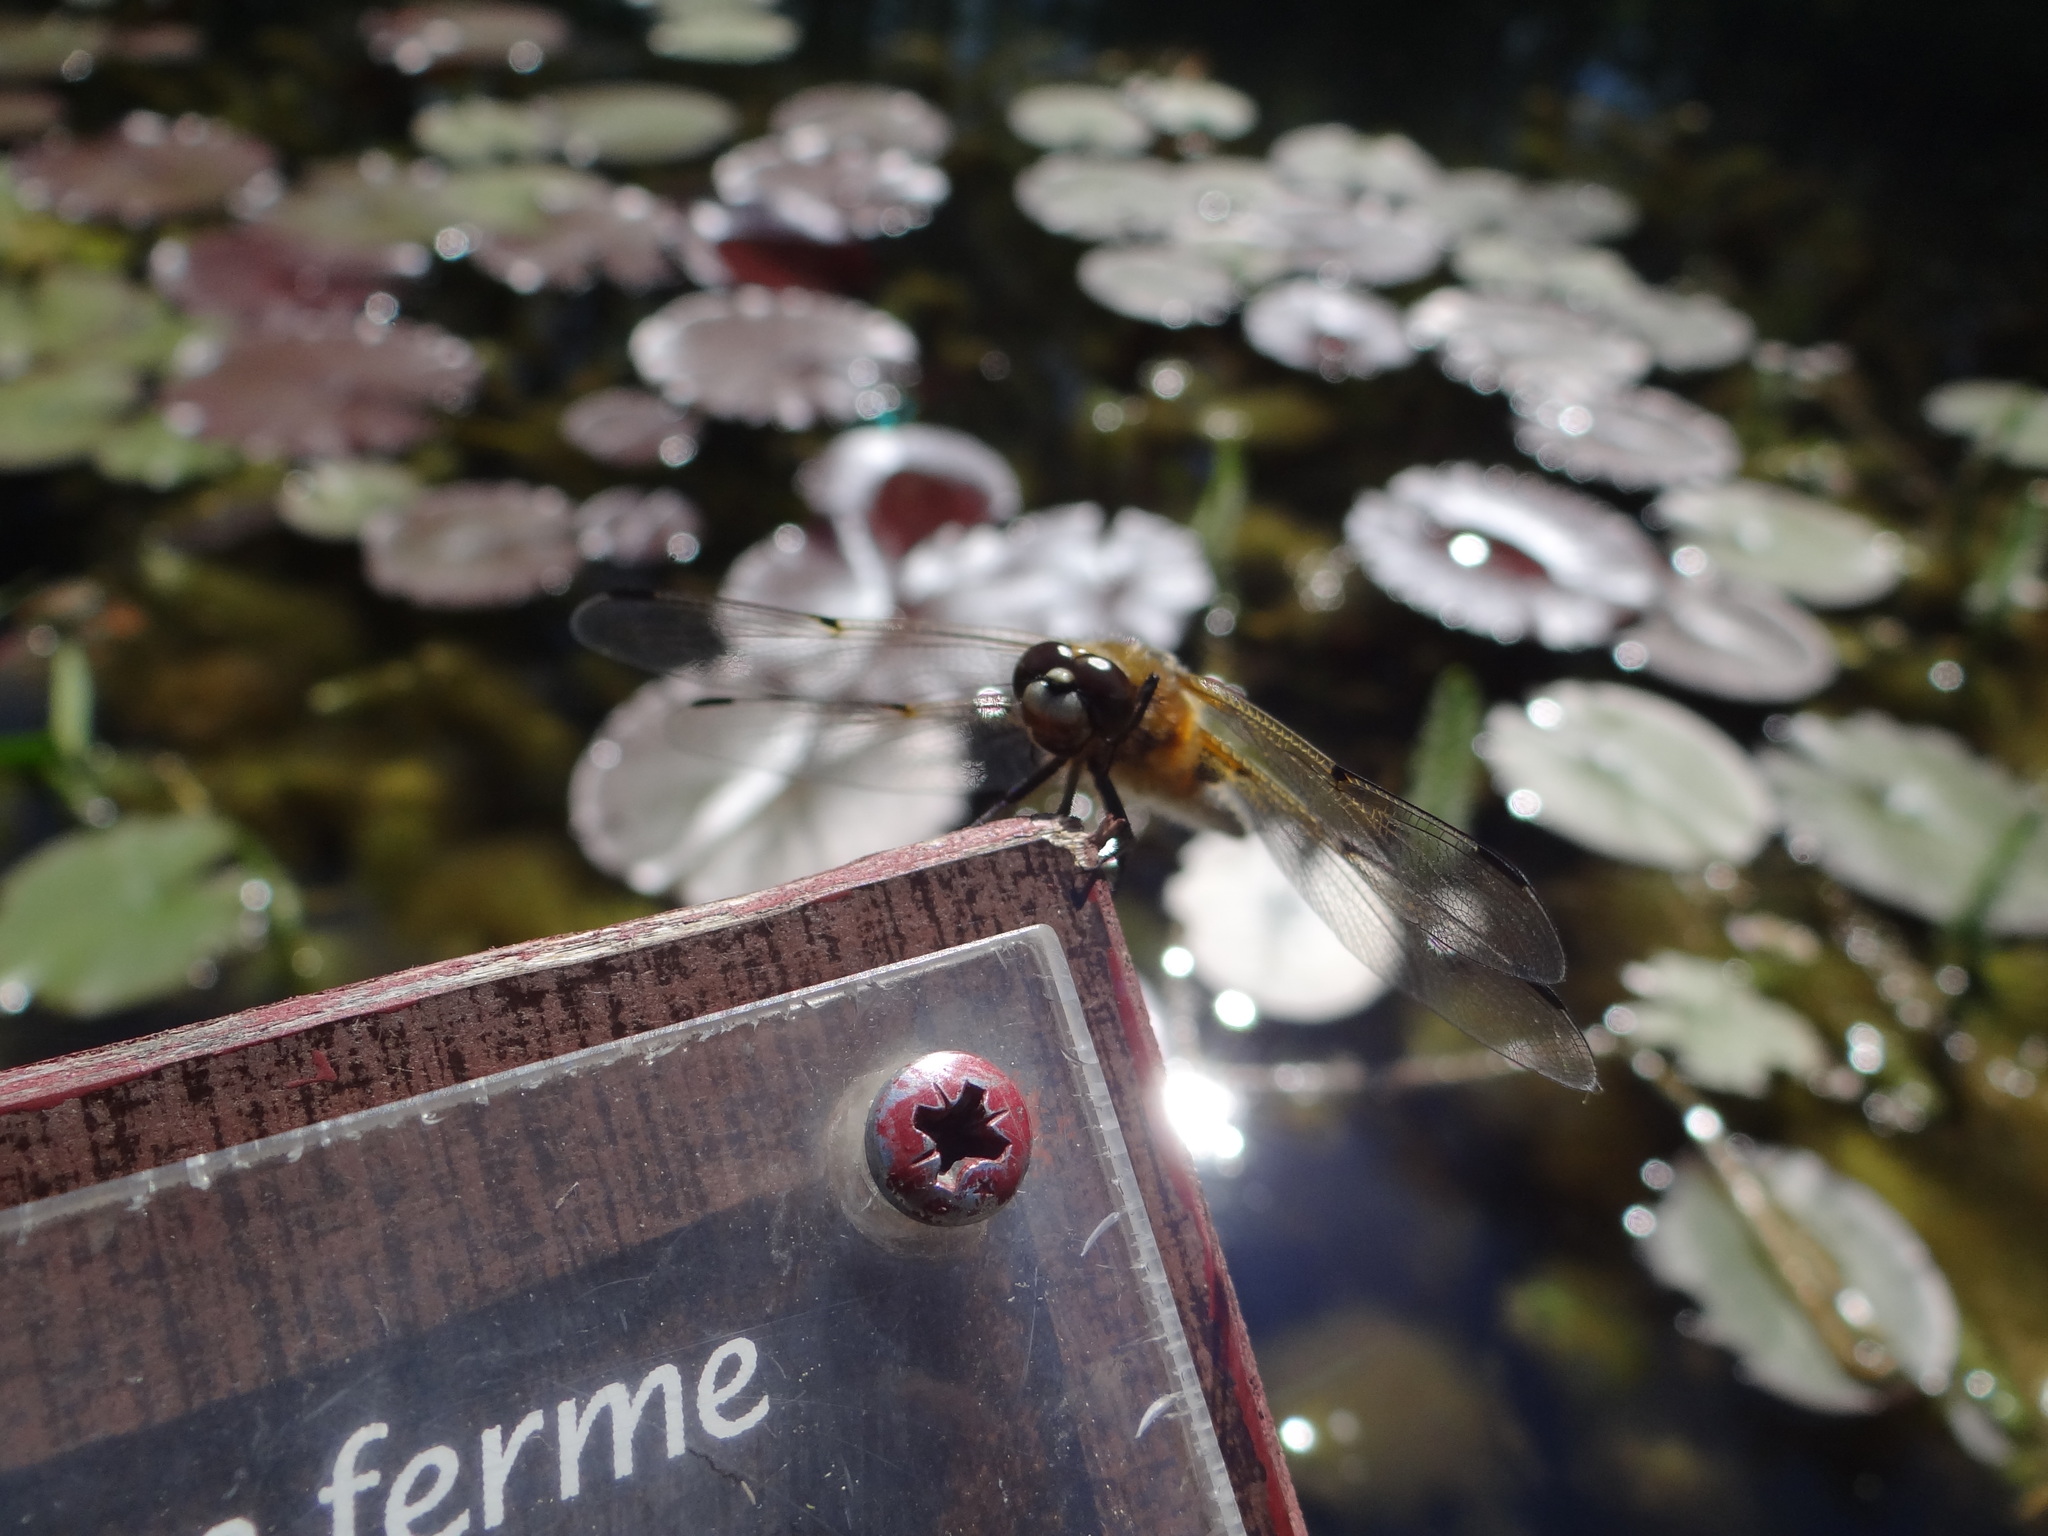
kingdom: Animalia
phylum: Arthropoda
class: Insecta
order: Odonata
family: Libellulidae
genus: Libellula
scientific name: Libellula quadrimaculata
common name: Four-spotted chaser
